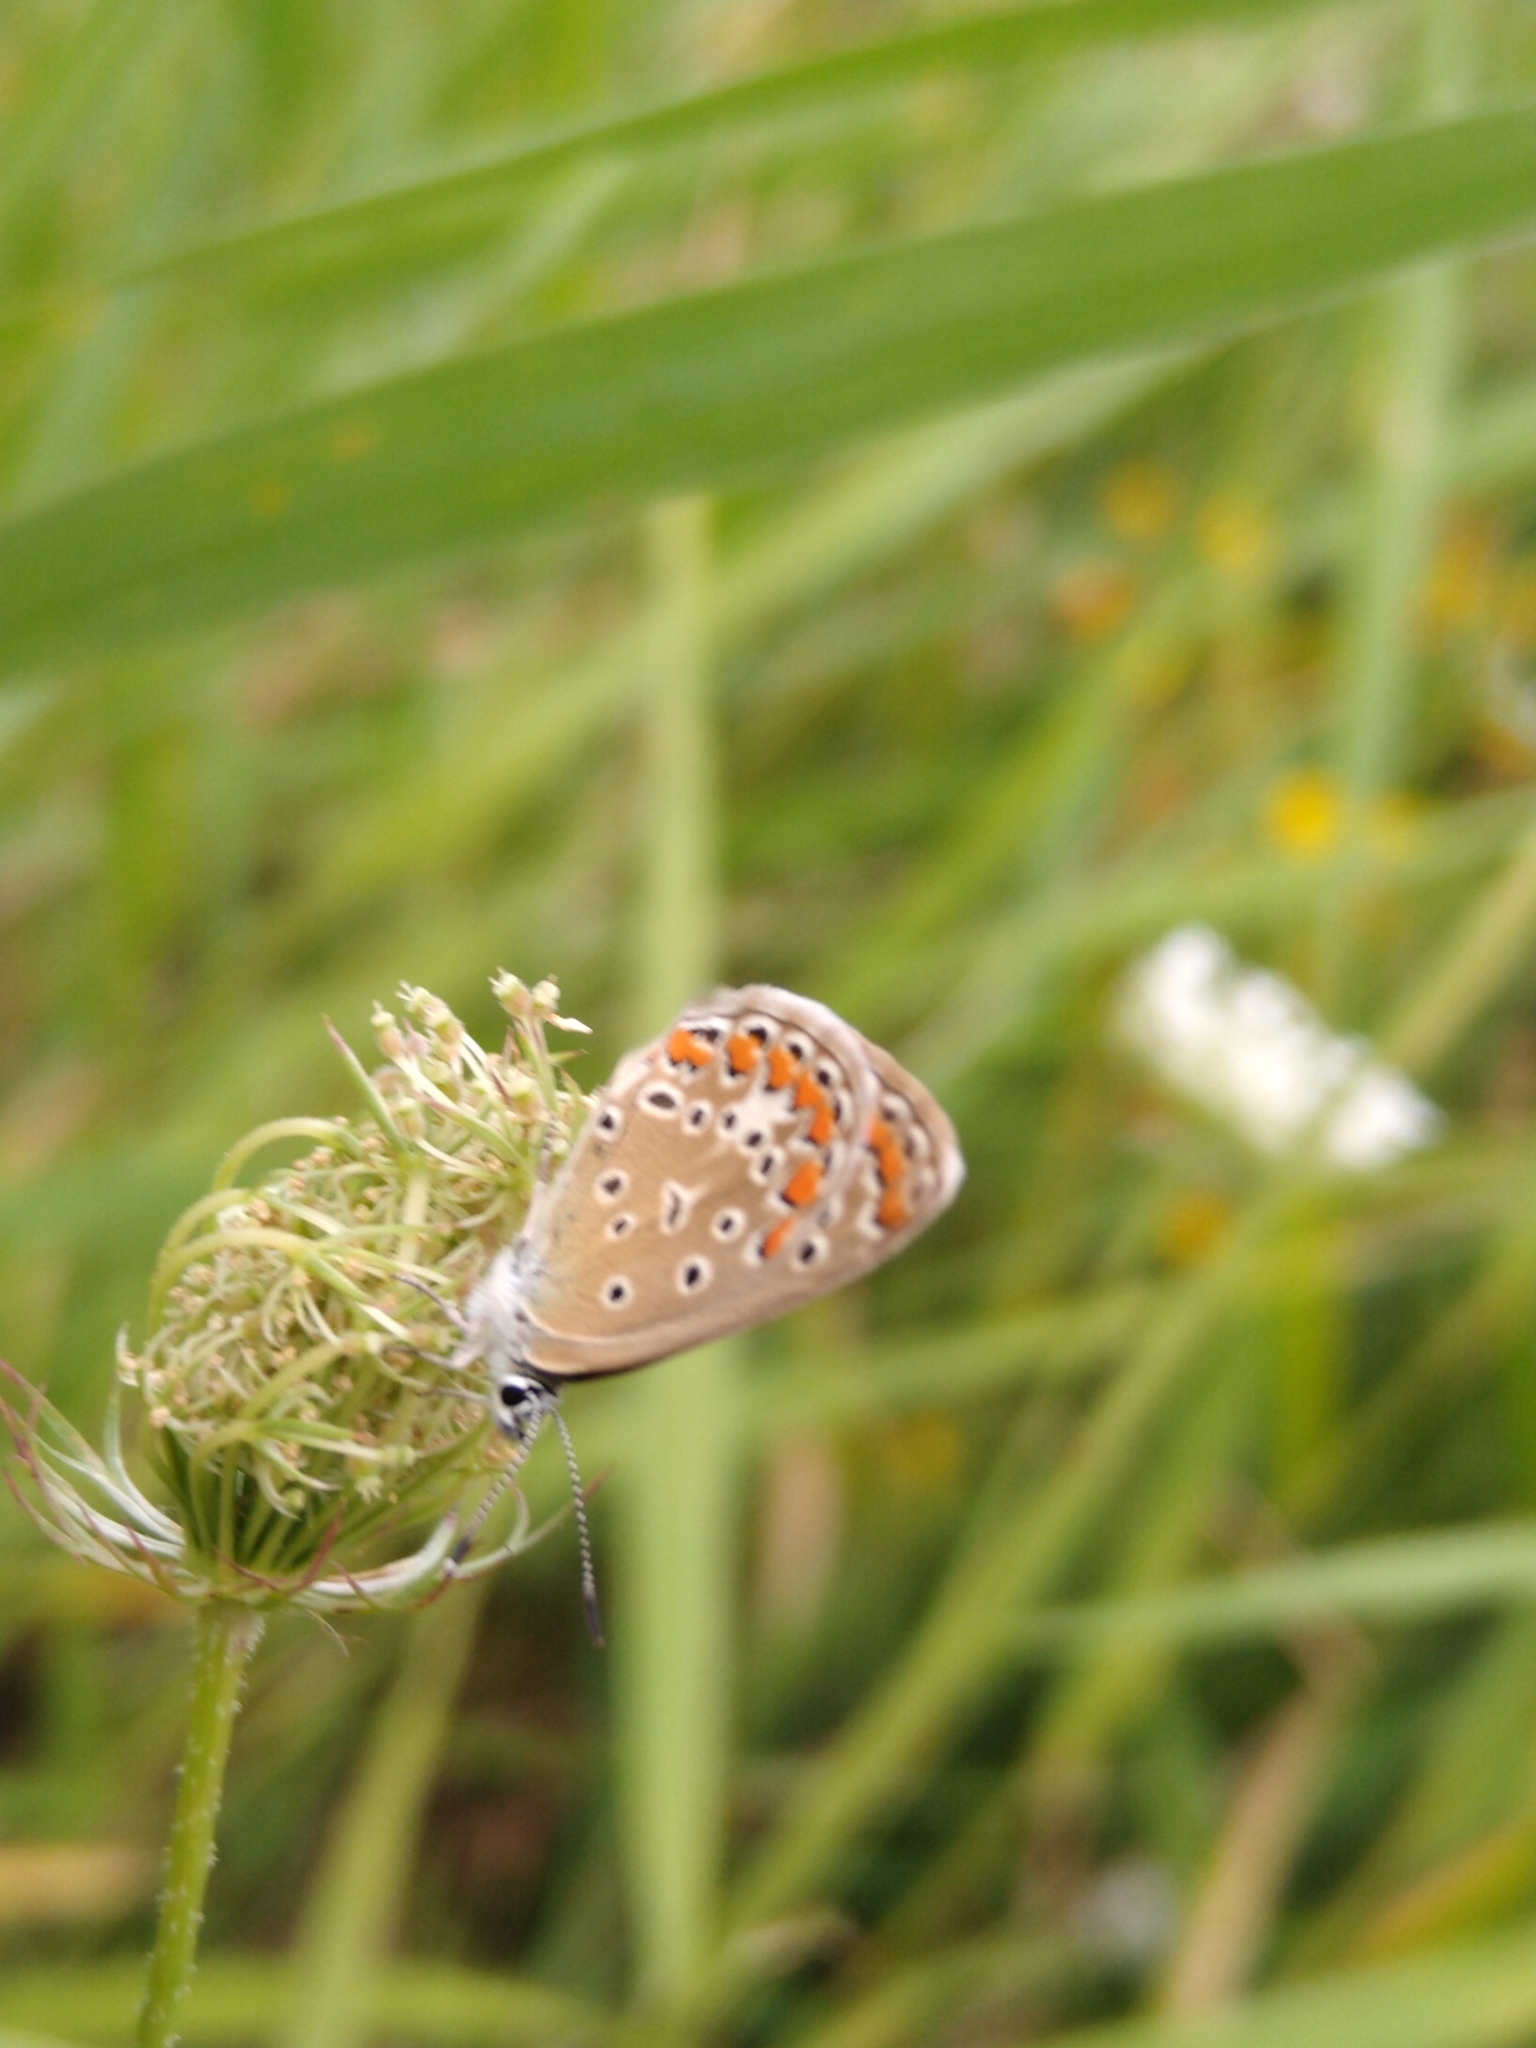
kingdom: Animalia
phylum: Arthropoda
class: Insecta
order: Lepidoptera
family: Lycaenidae
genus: Polyommatus
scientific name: Polyommatus icarus
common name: Common blue
